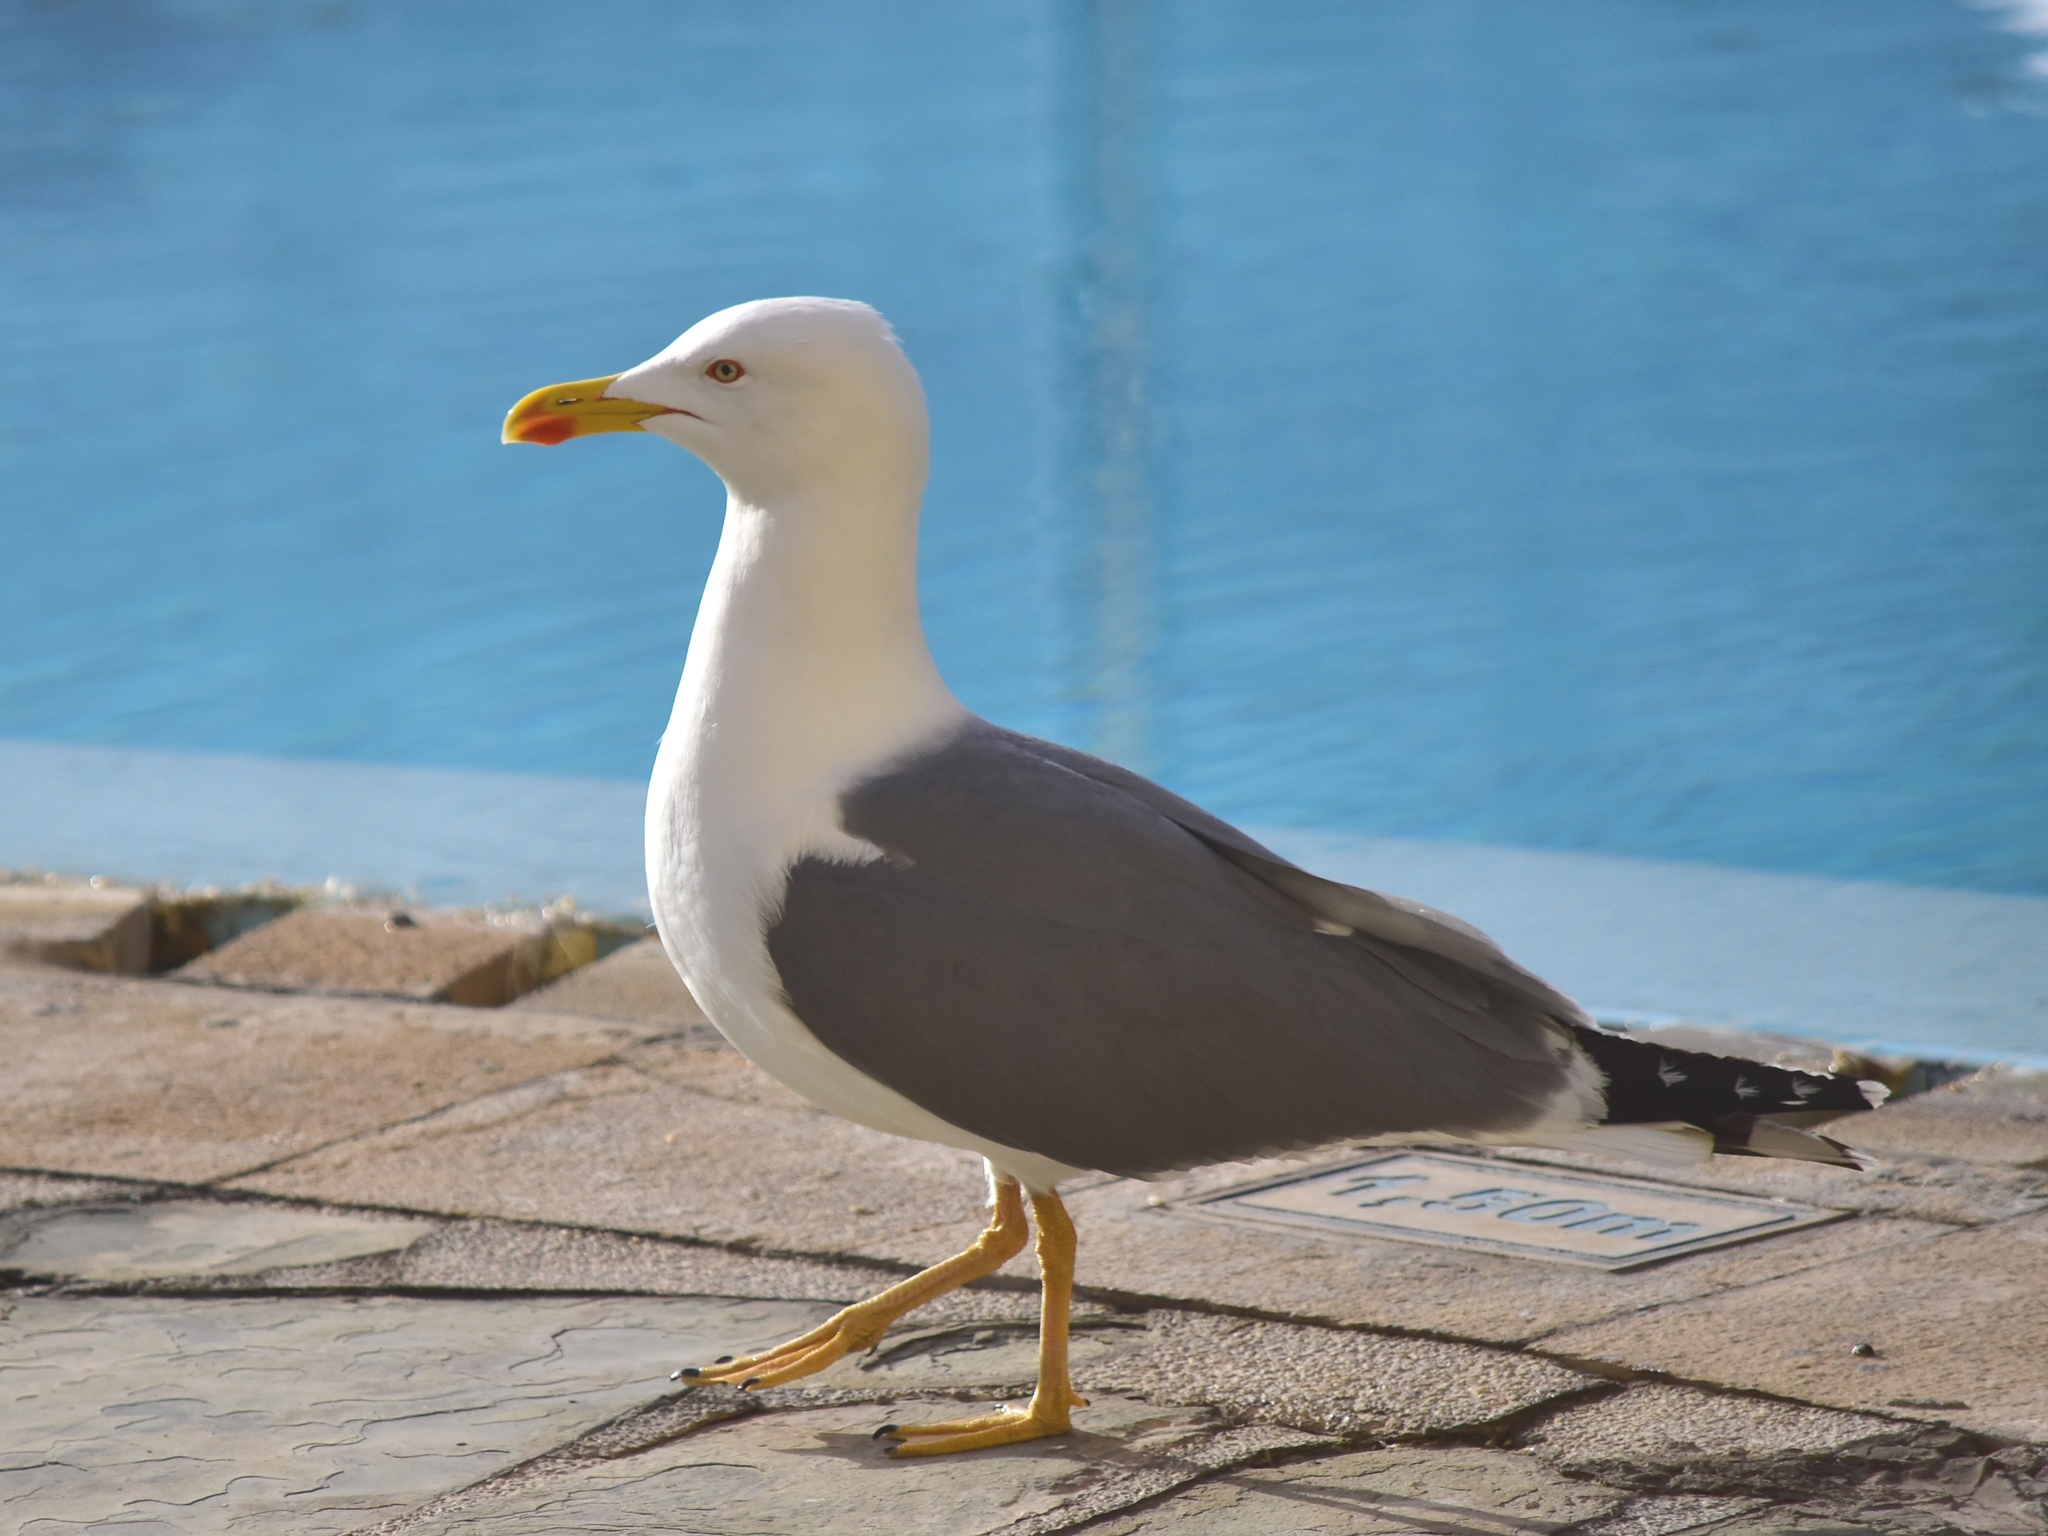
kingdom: Animalia
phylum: Chordata
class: Aves
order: Charadriiformes
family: Laridae
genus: Larus
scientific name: Larus michahellis
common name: Yellow-legged gull
